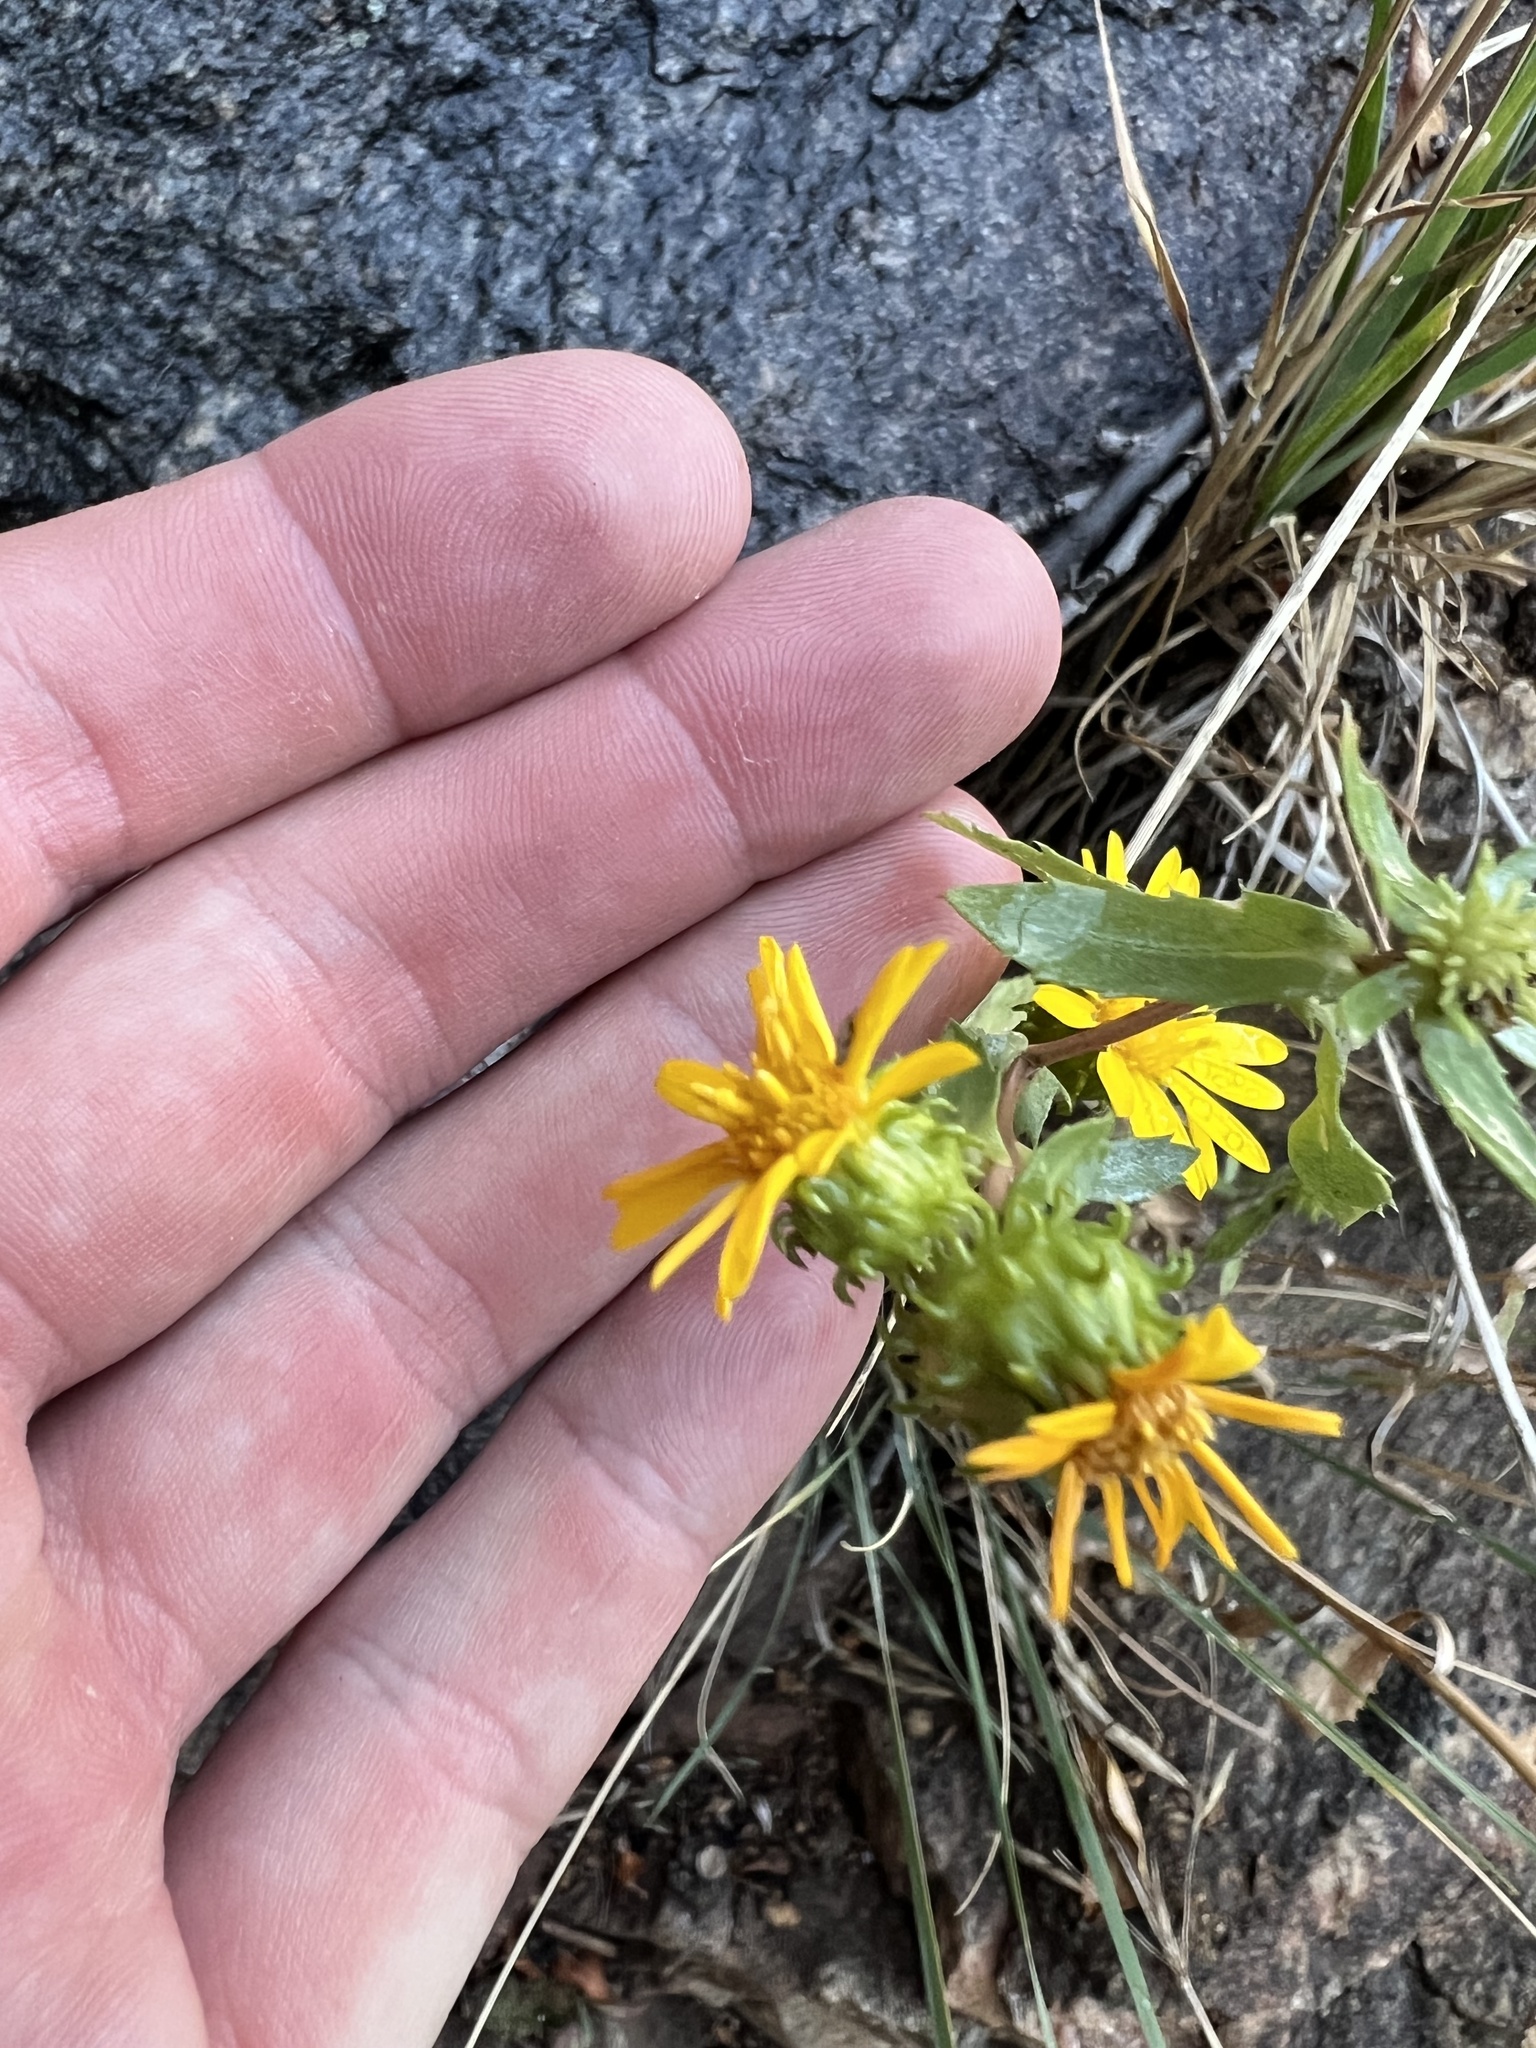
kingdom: Plantae
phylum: Tracheophyta
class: Magnoliopsida
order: Asterales
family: Asteraceae
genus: Grindelia
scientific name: Grindelia subalpina
